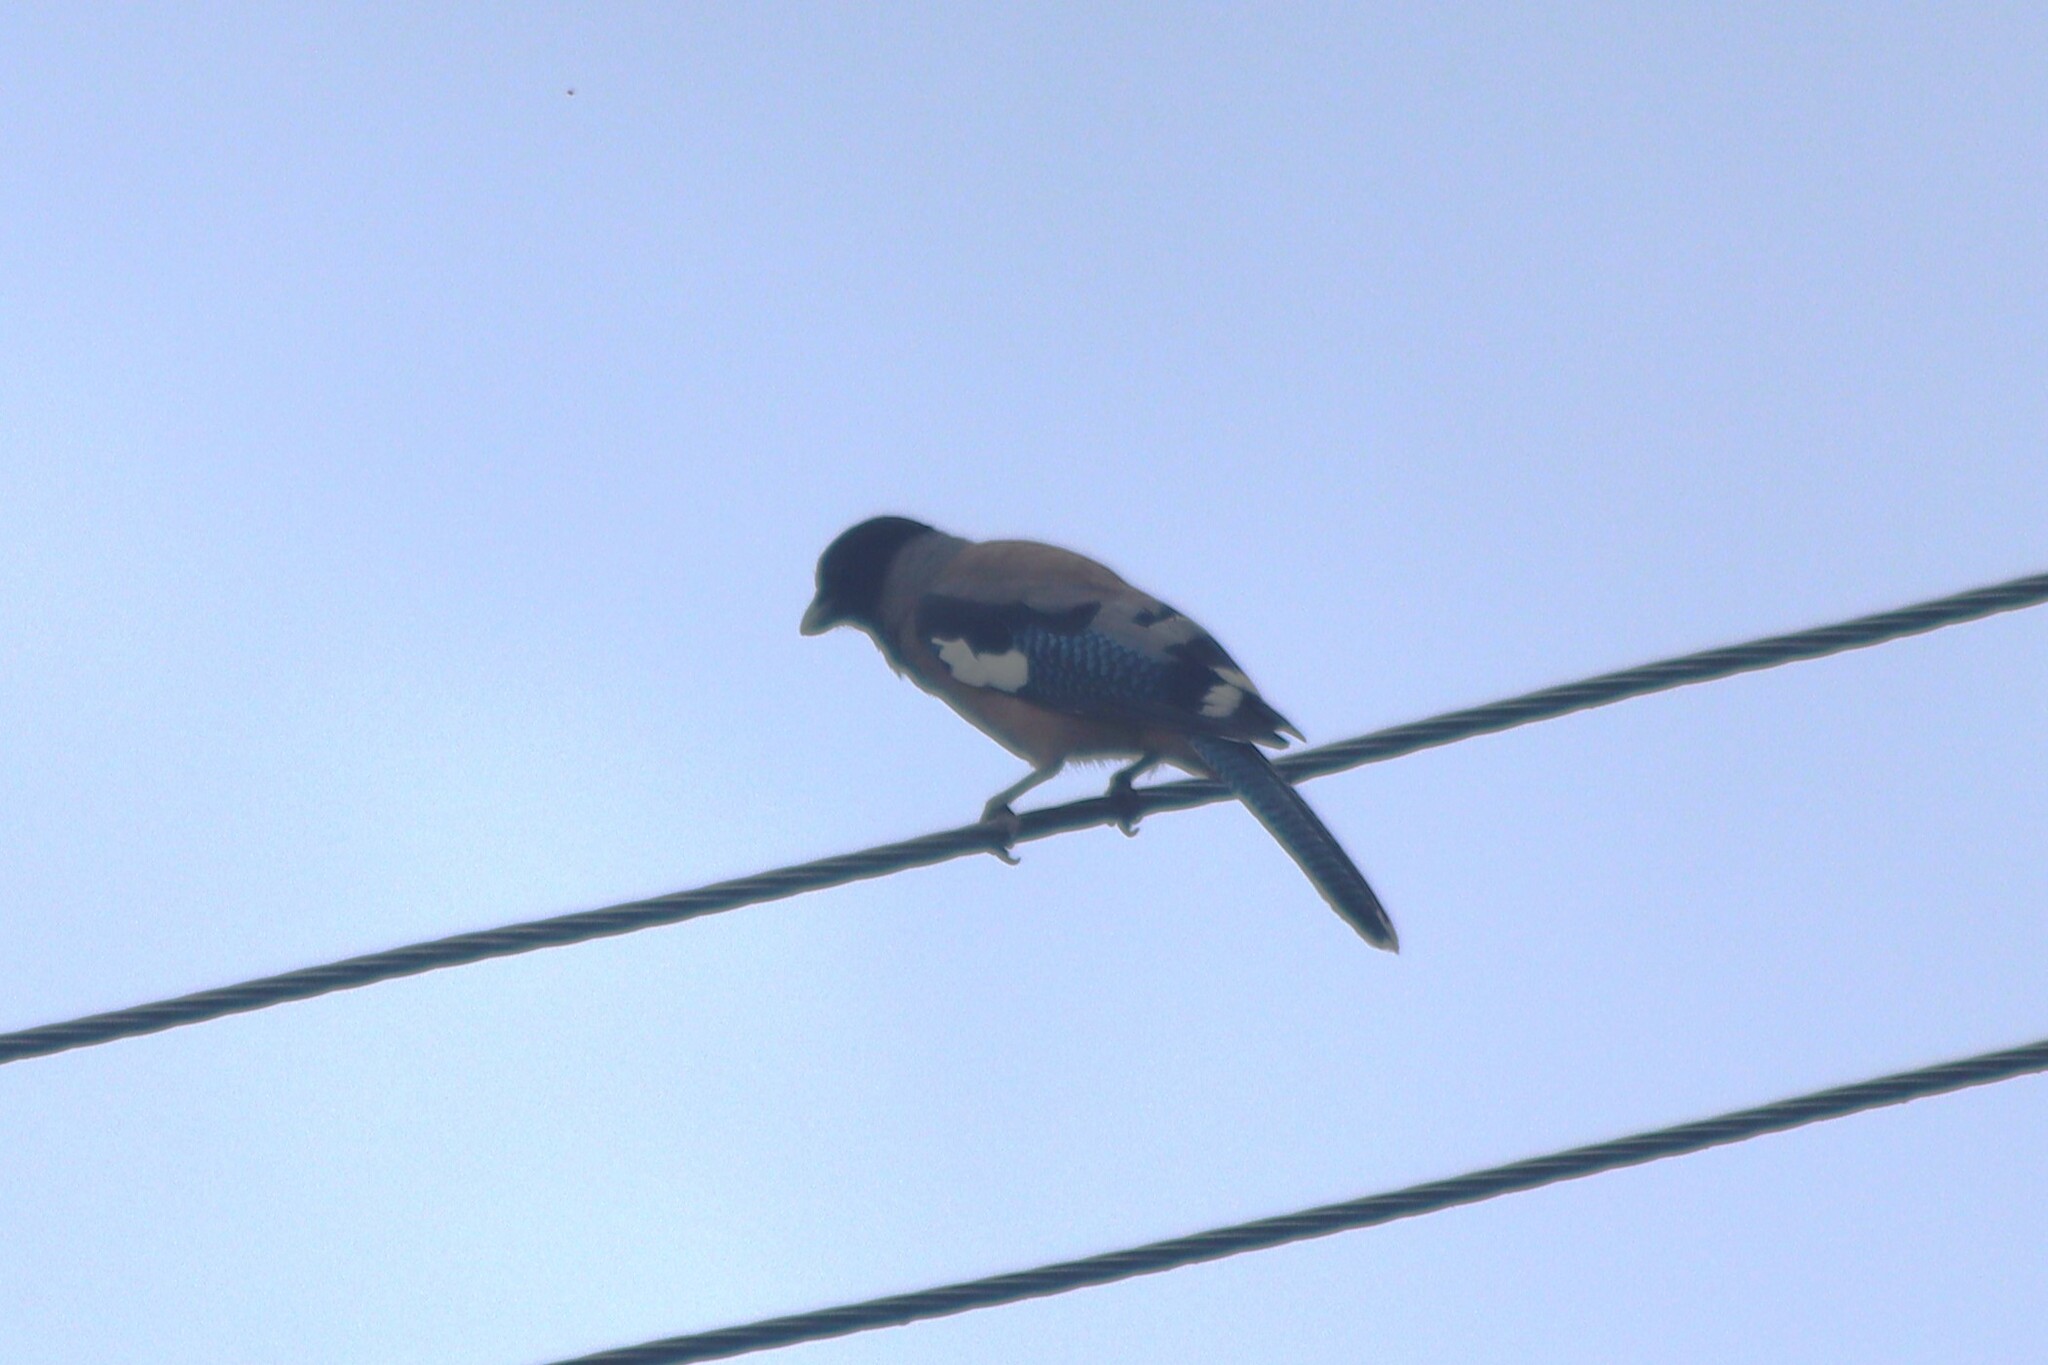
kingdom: Animalia
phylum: Chordata
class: Aves
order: Passeriformes
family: Corvidae
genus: Garrulus
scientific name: Garrulus lanceolatus
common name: Black-headed jay
